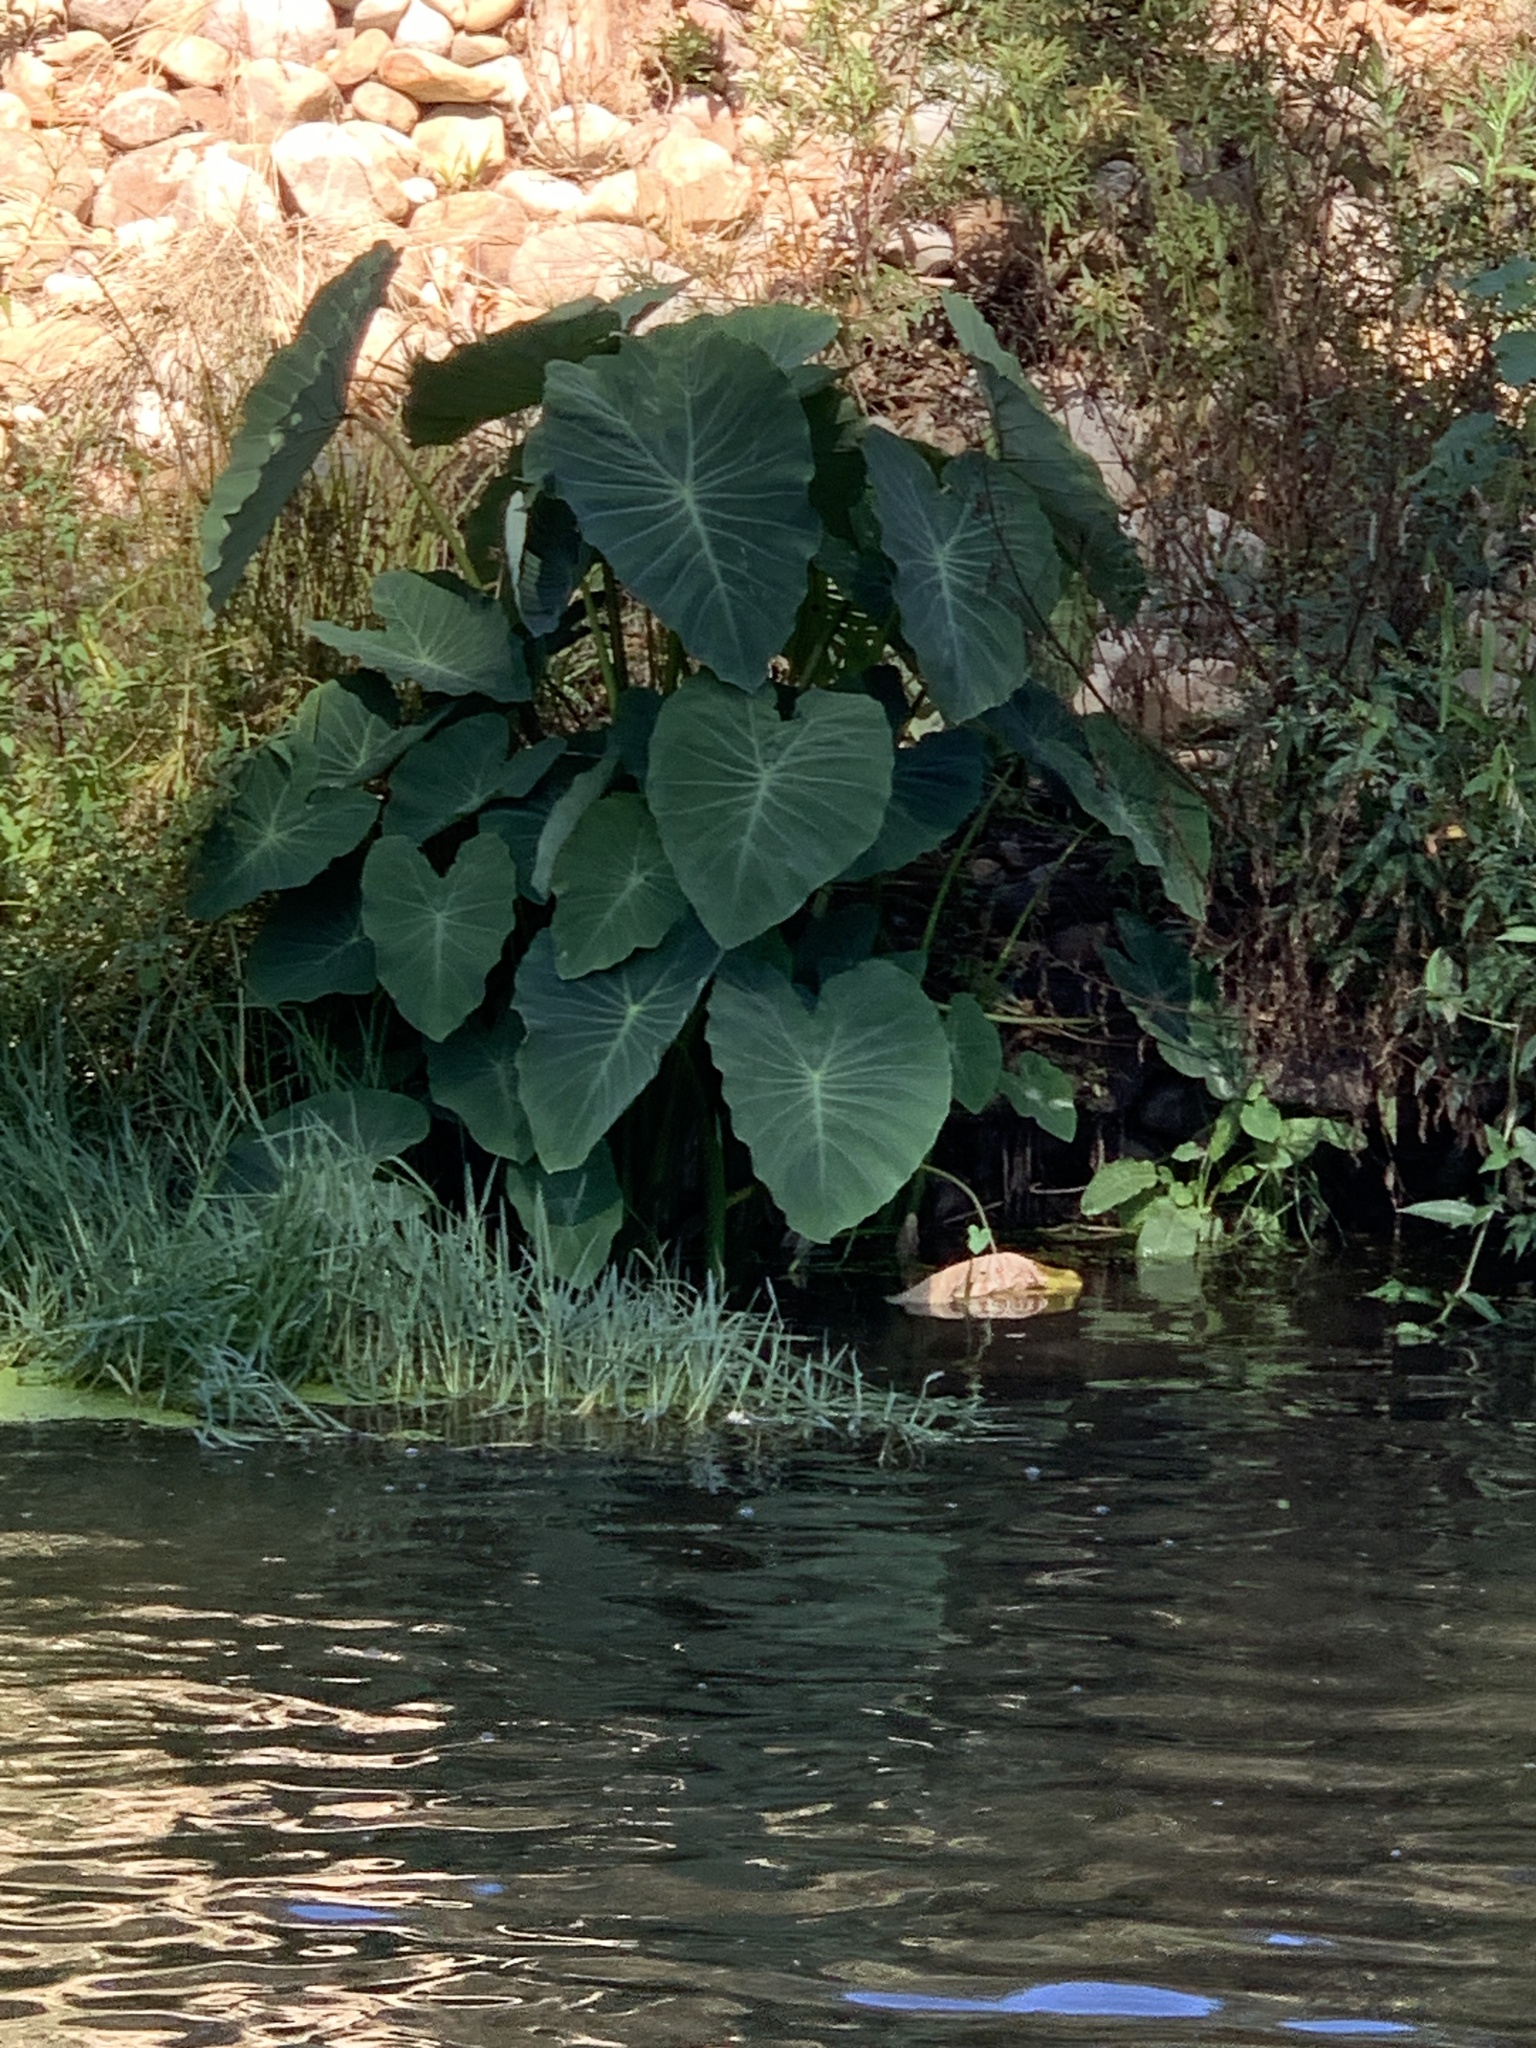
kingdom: Plantae
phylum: Tracheophyta
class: Liliopsida
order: Alismatales
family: Araceae
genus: Colocasia
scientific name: Colocasia esculenta
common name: Taro
